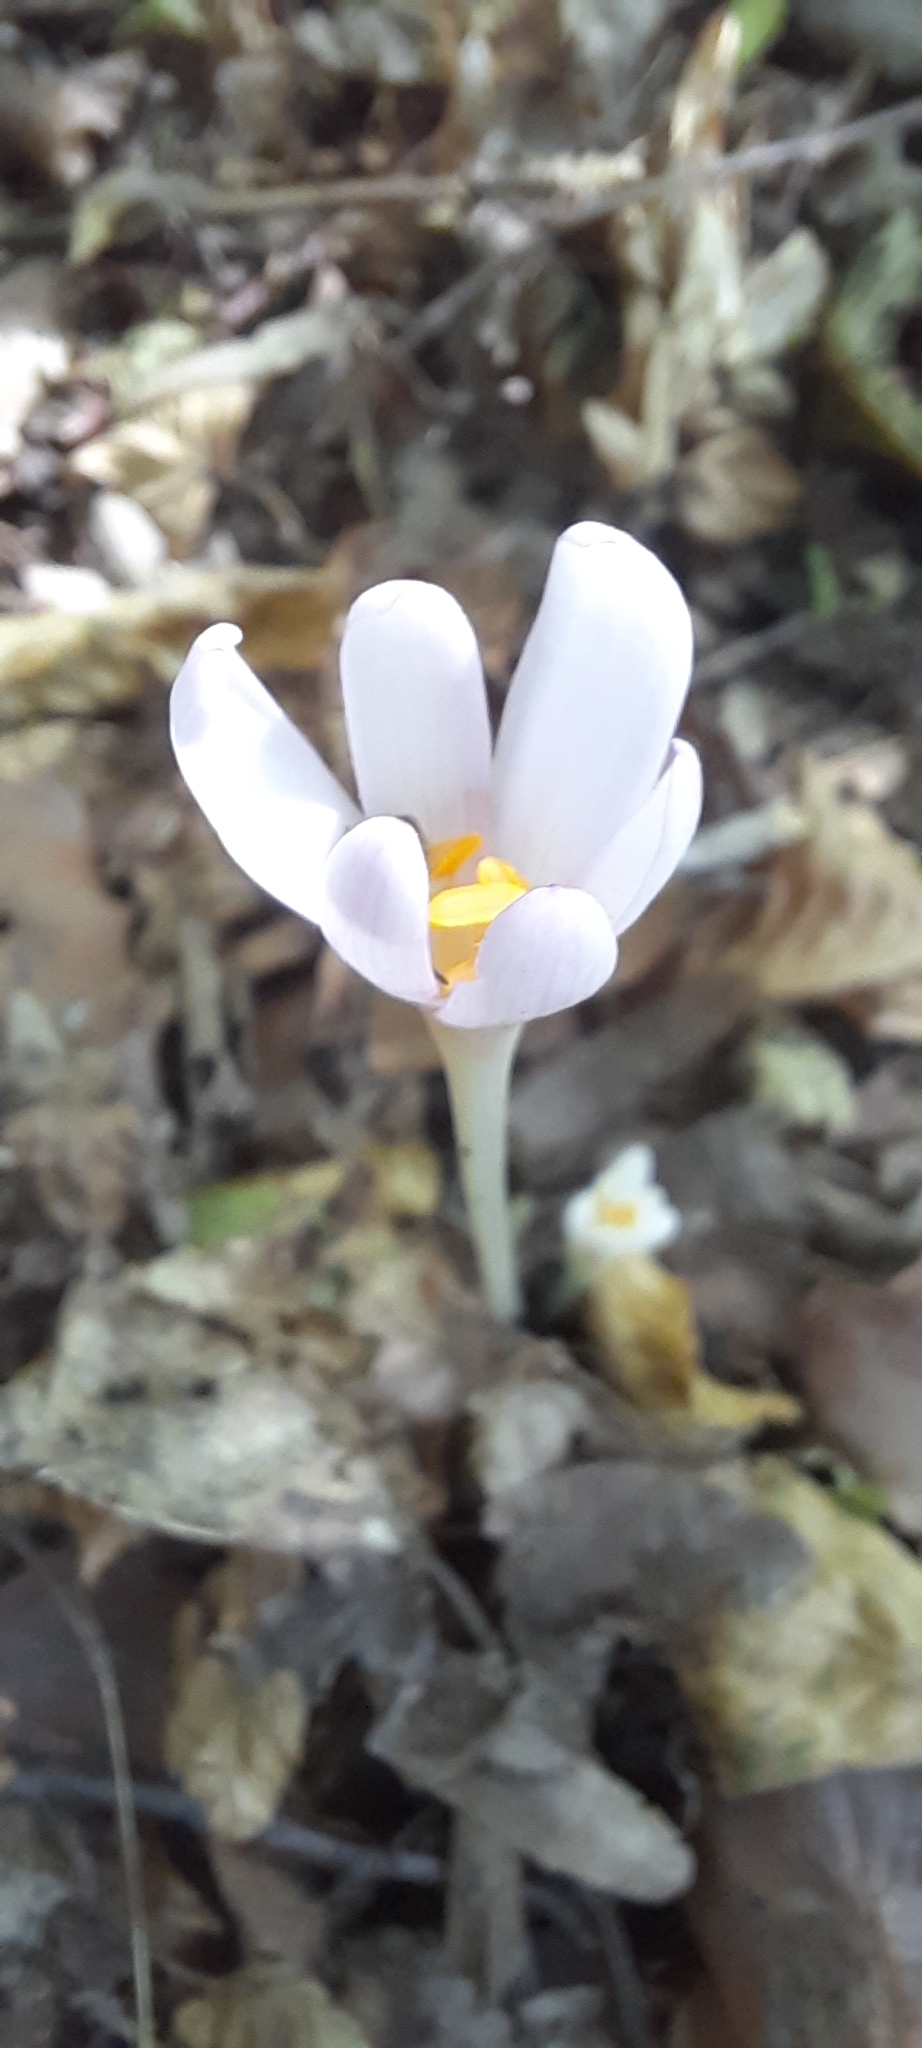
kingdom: Plantae
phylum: Tracheophyta
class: Liliopsida
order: Liliales
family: Colchicaceae
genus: Colchicum
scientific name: Colchicum umbrosum
